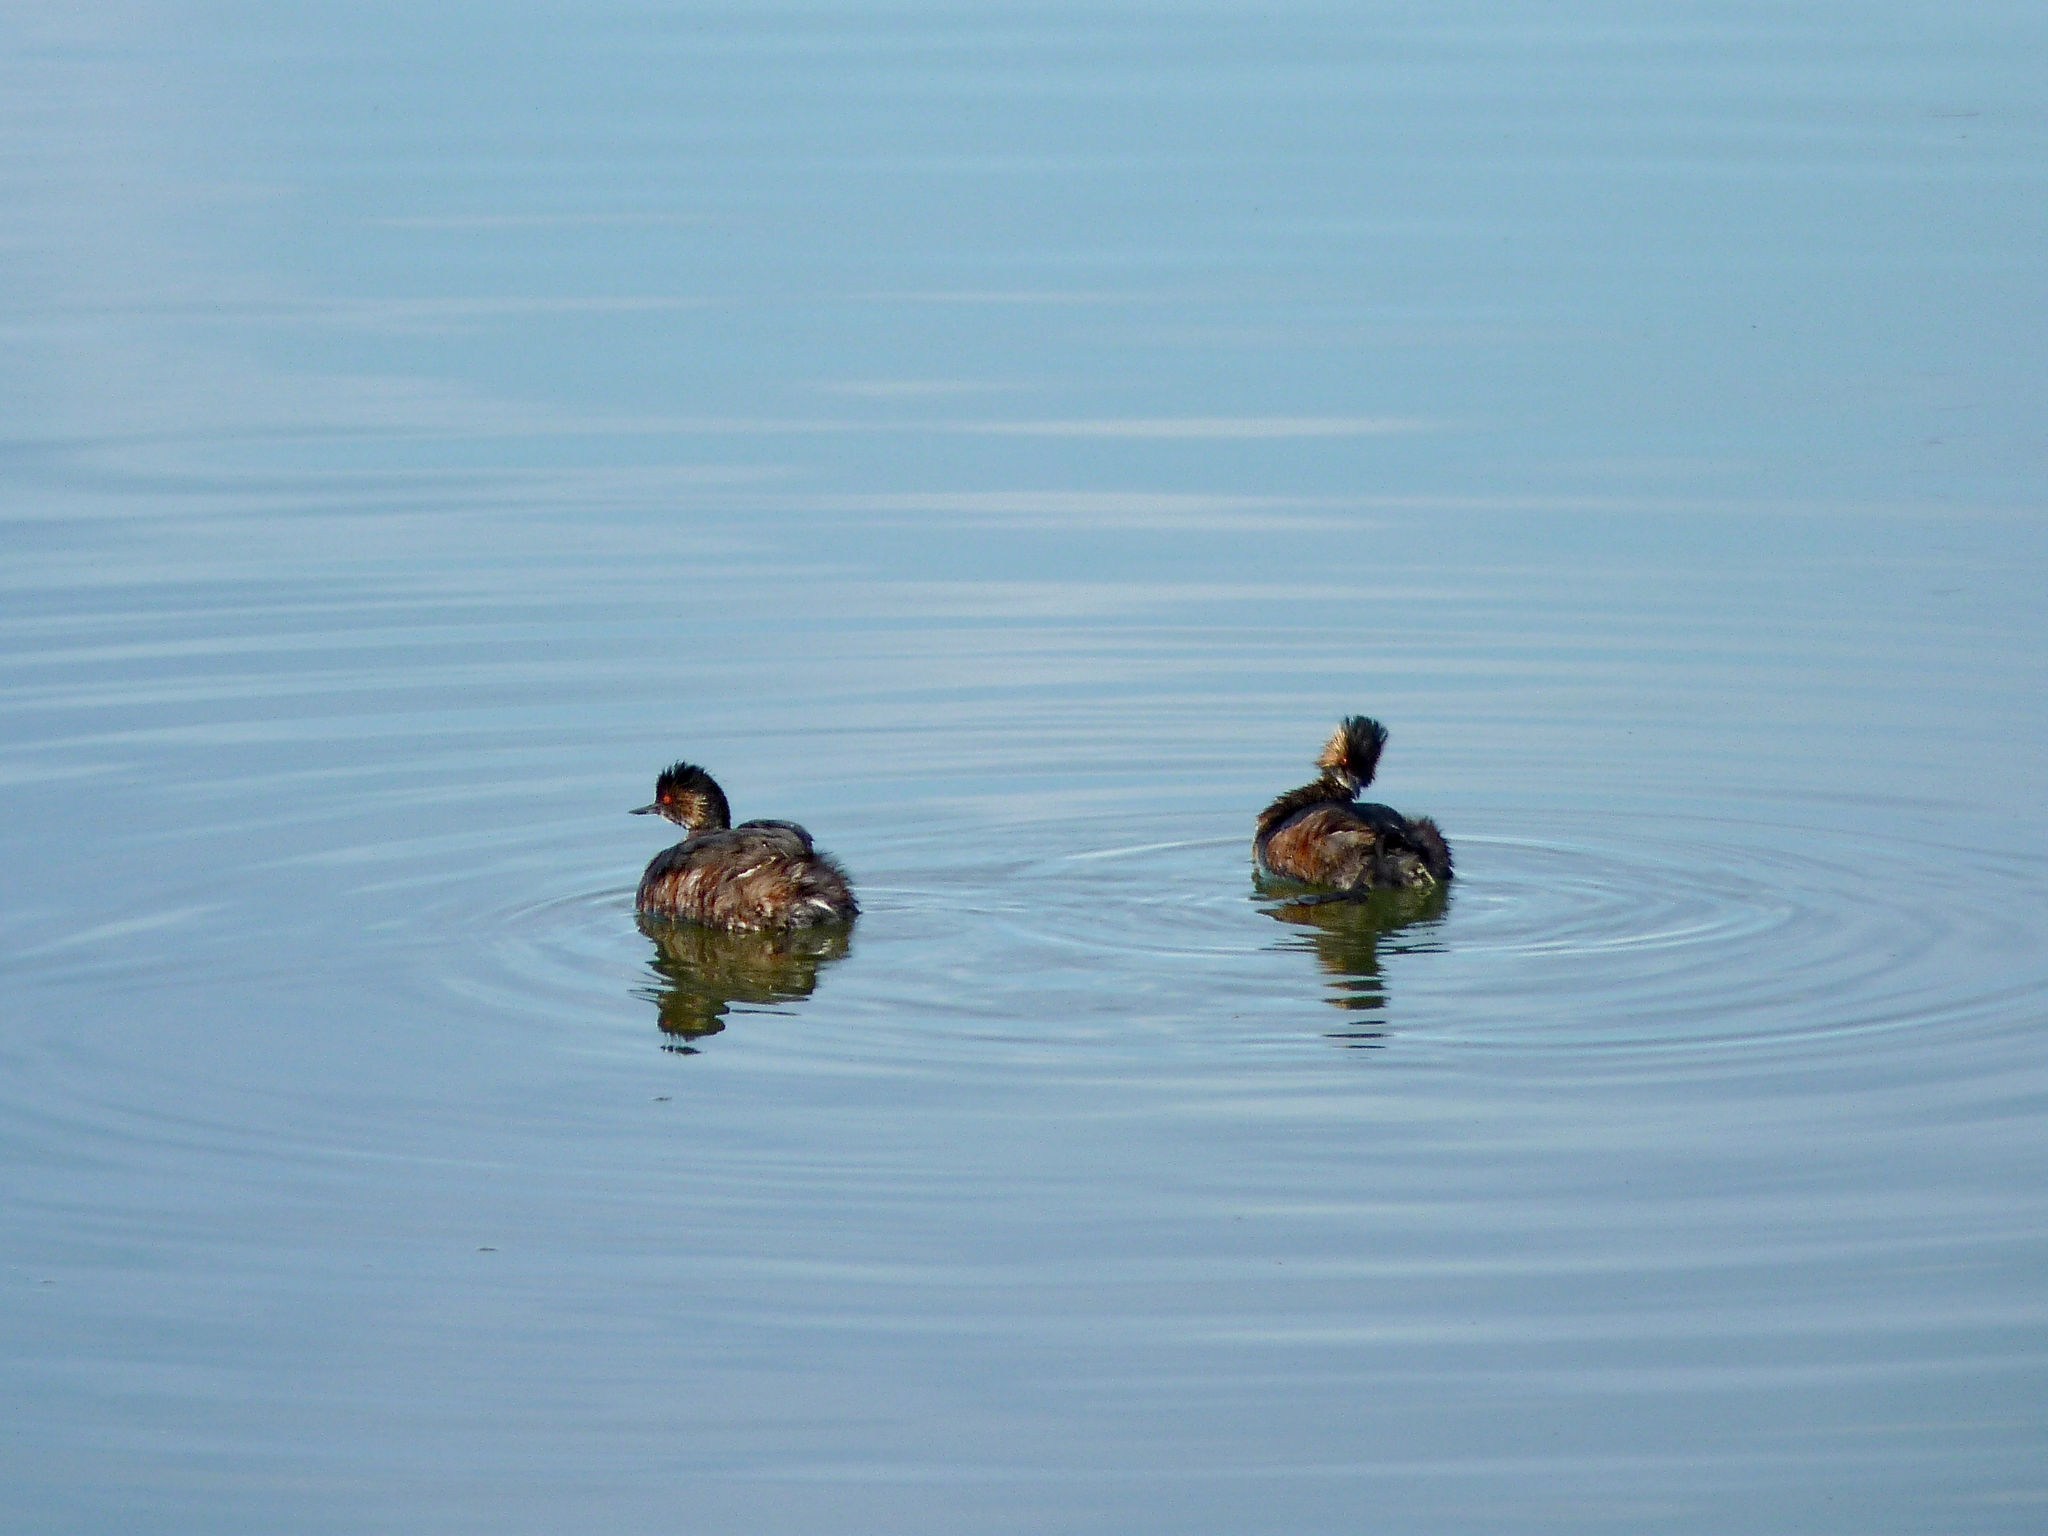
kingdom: Animalia
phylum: Chordata
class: Aves
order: Podicipediformes
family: Podicipedidae
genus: Podiceps
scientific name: Podiceps nigricollis
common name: Black-necked grebe
